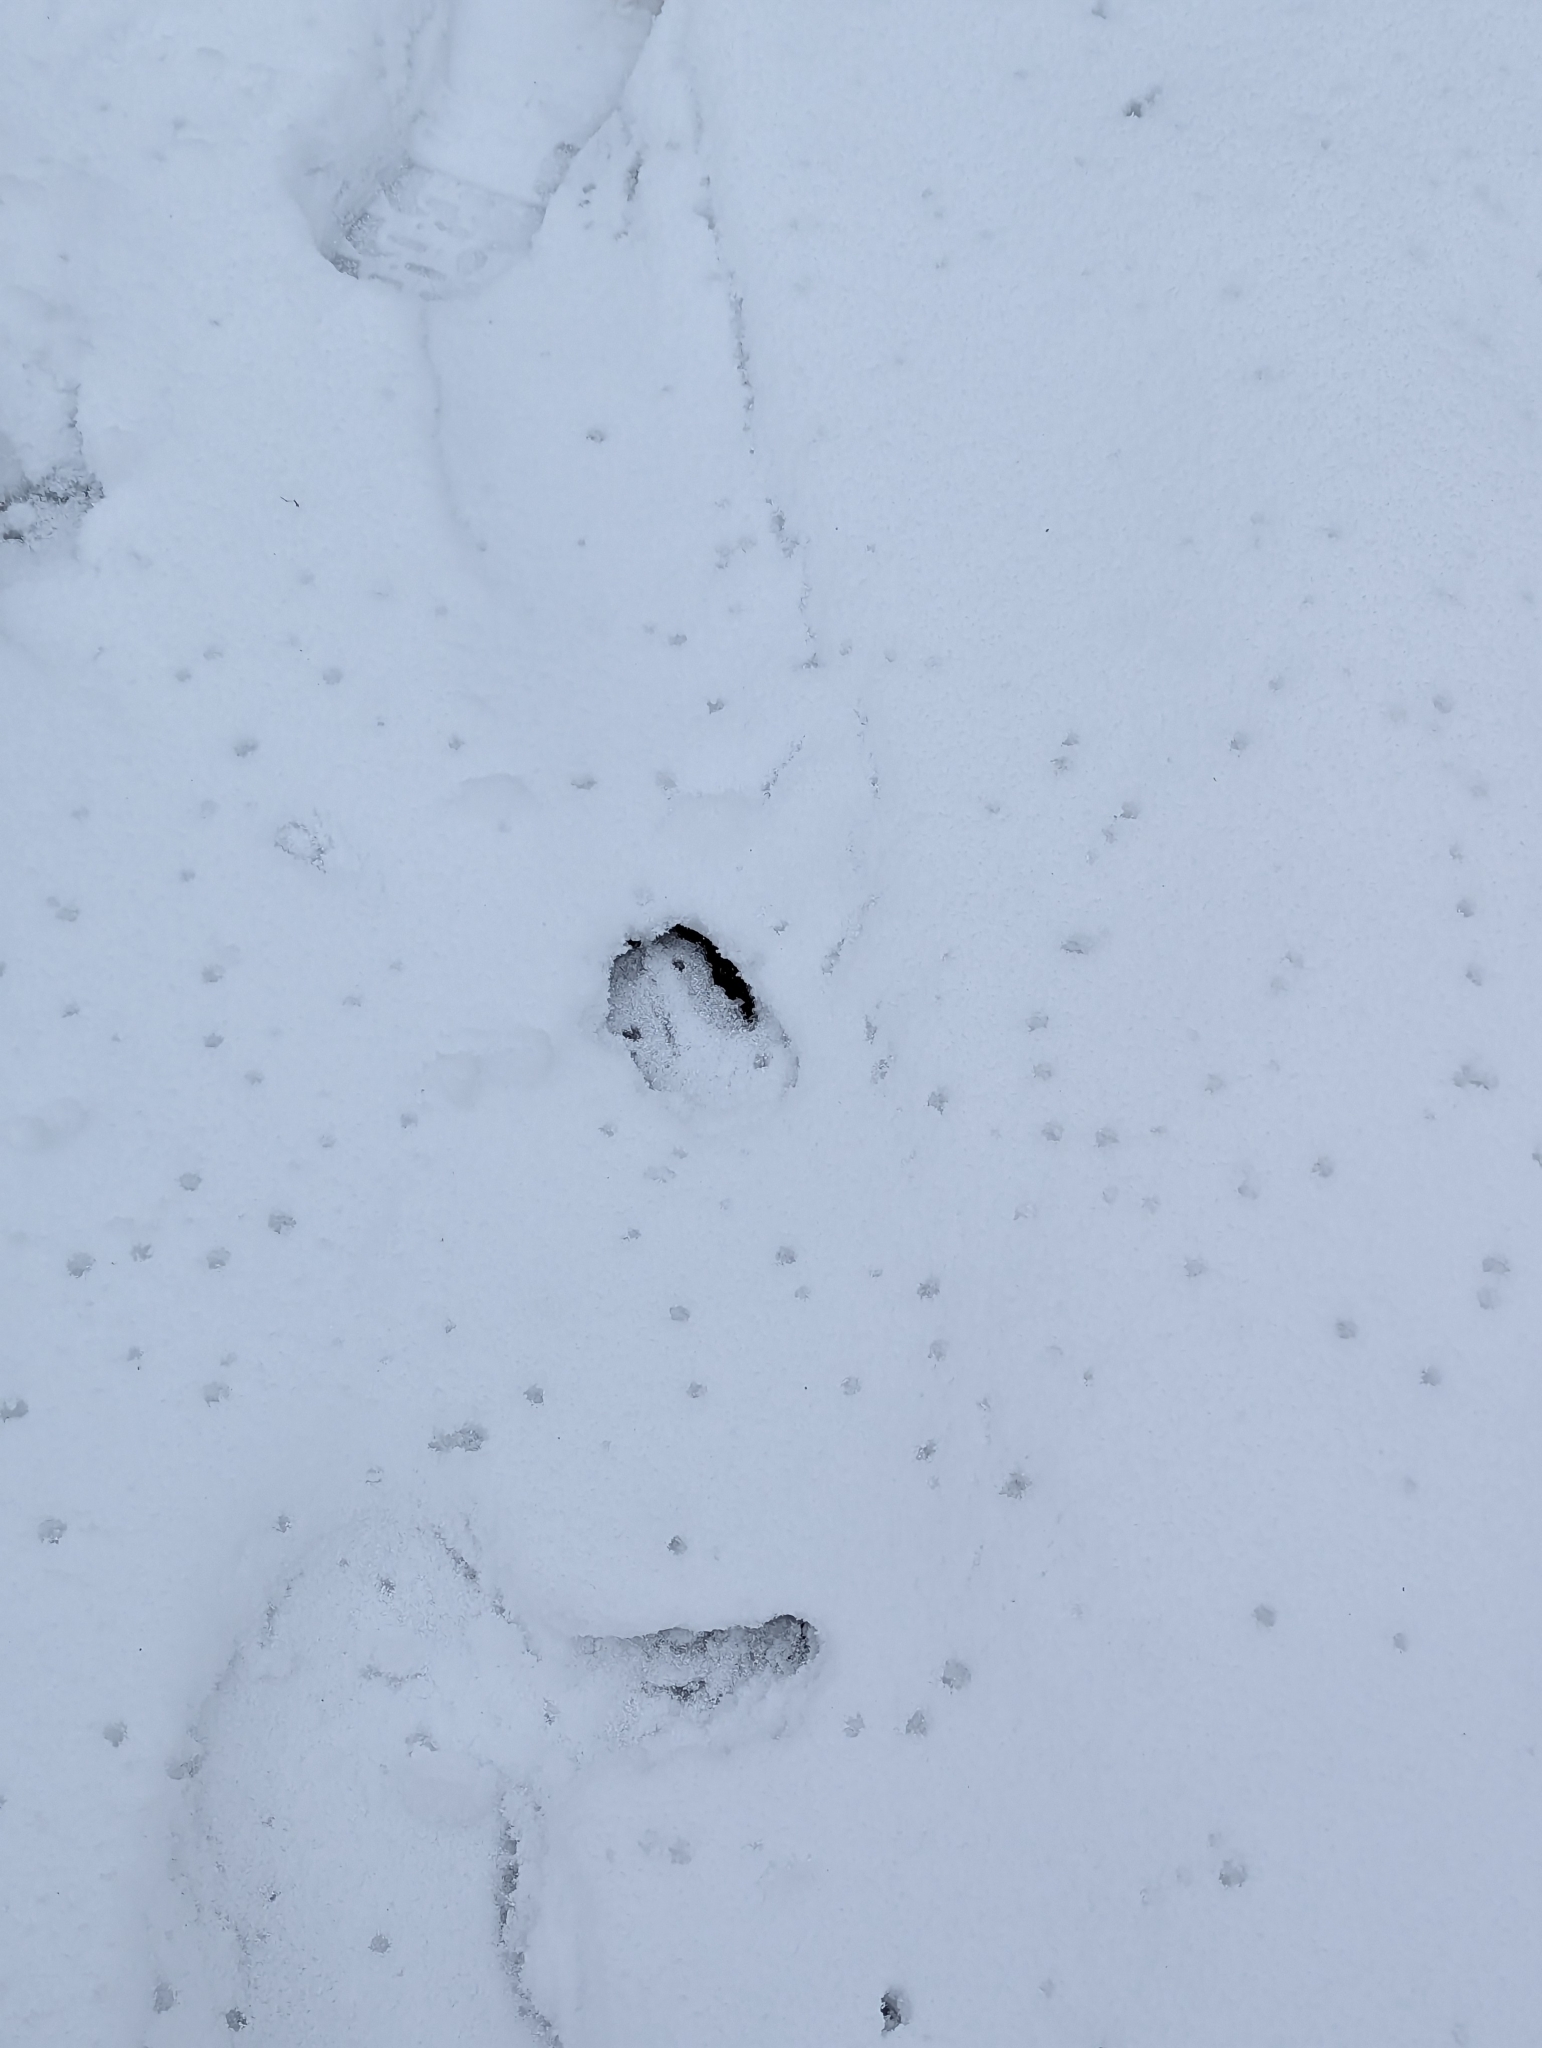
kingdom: Animalia
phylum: Chordata
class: Mammalia
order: Artiodactyla
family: Cervidae
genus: Odocoileus
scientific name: Odocoileus virginianus
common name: White-tailed deer
